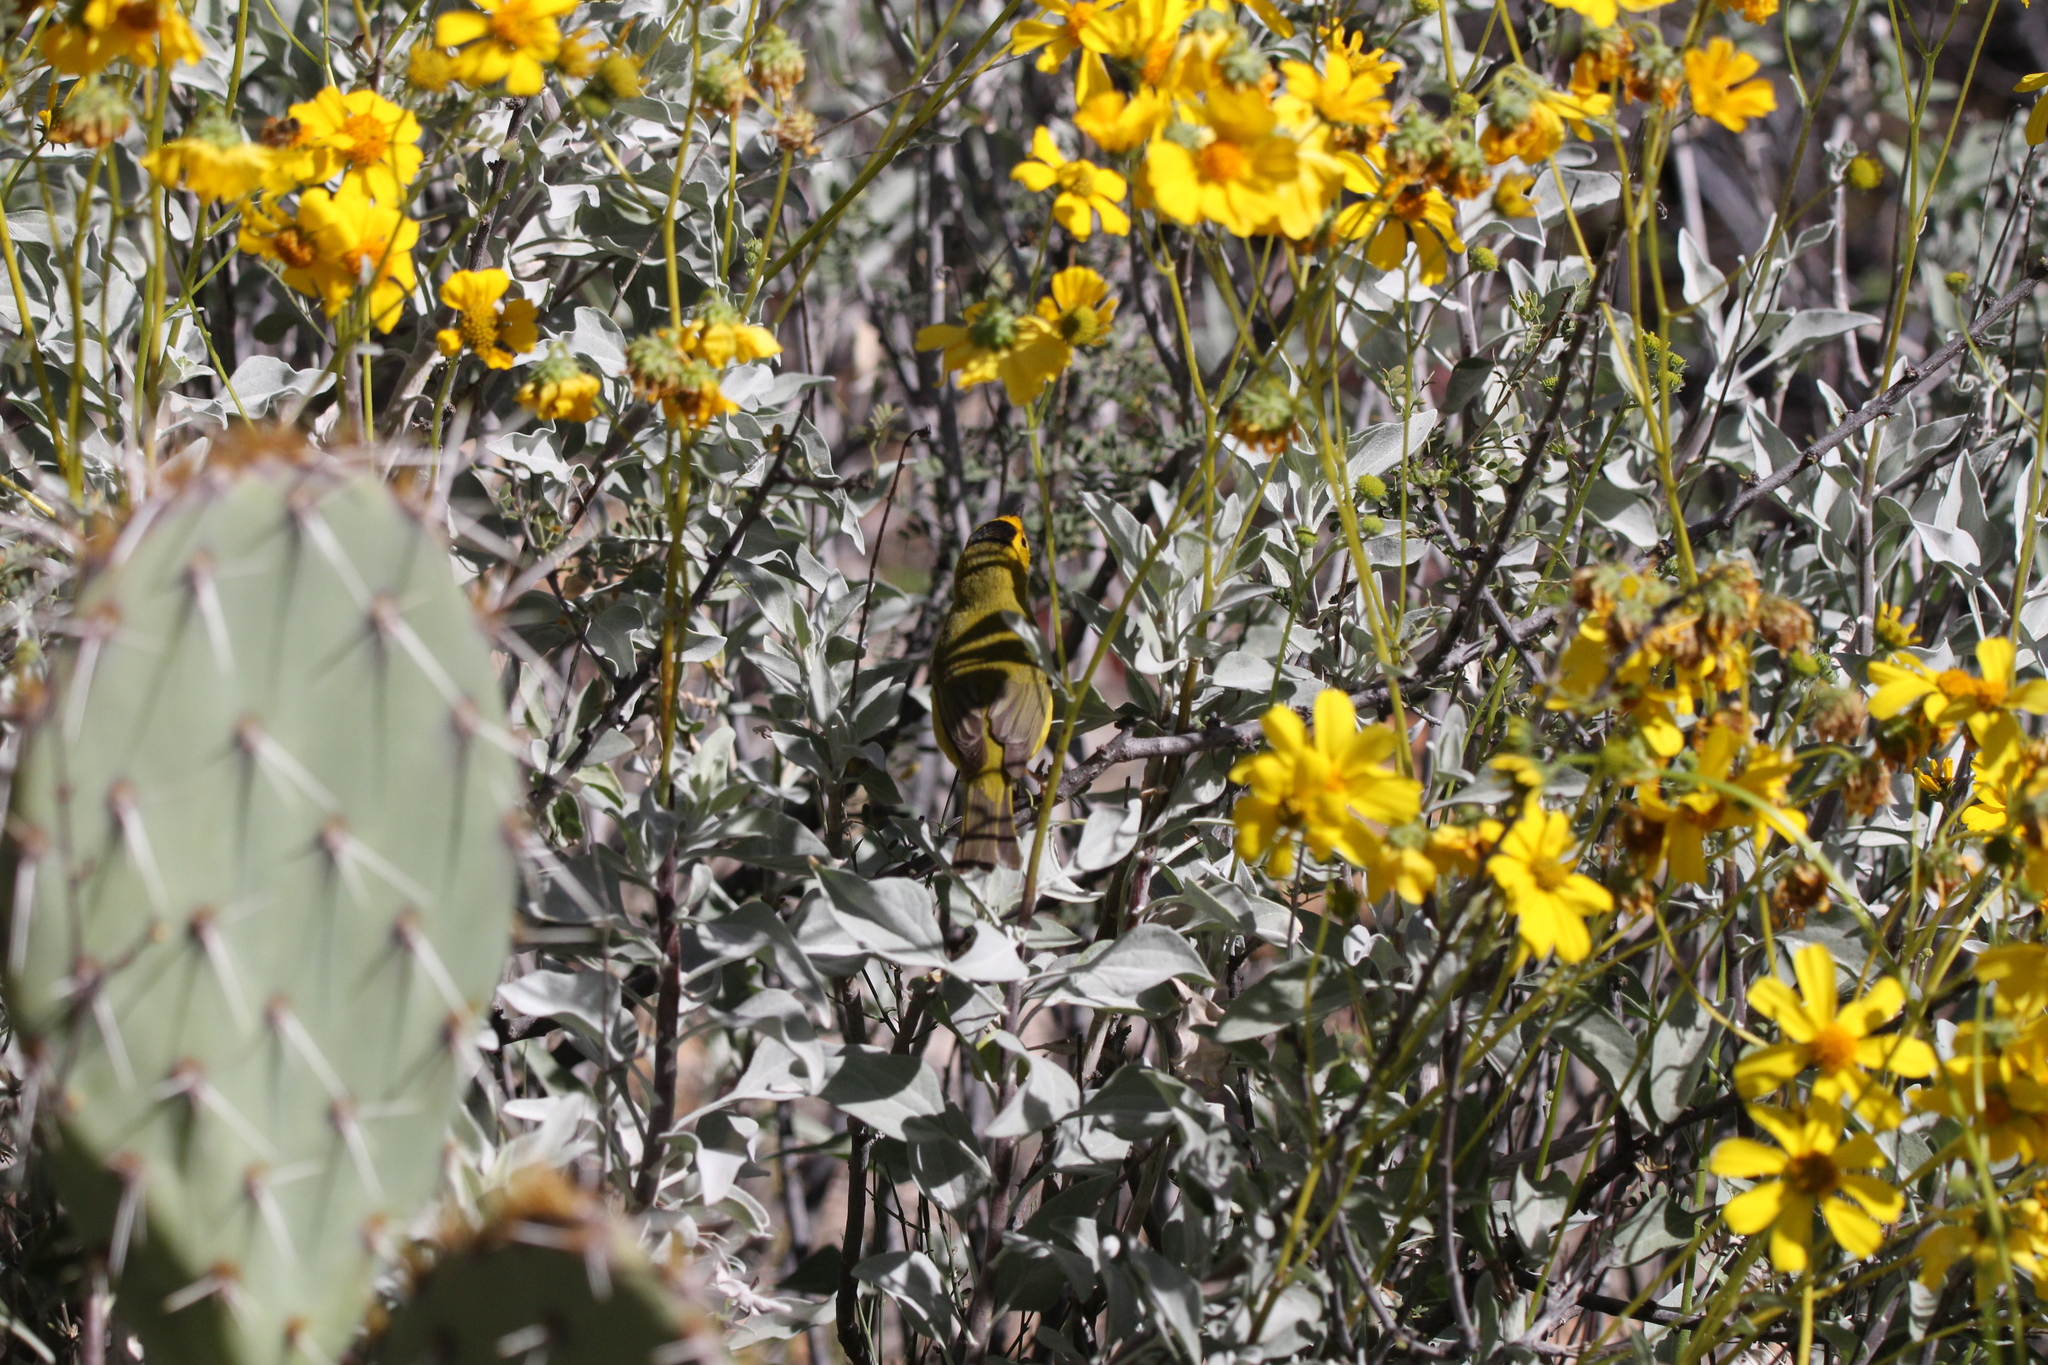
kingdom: Animalia
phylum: Chordata
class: Aves
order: Passeriformes
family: Parulidae
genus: Cardellina
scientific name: Cardellina pusilla
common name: Wilson's warbler
